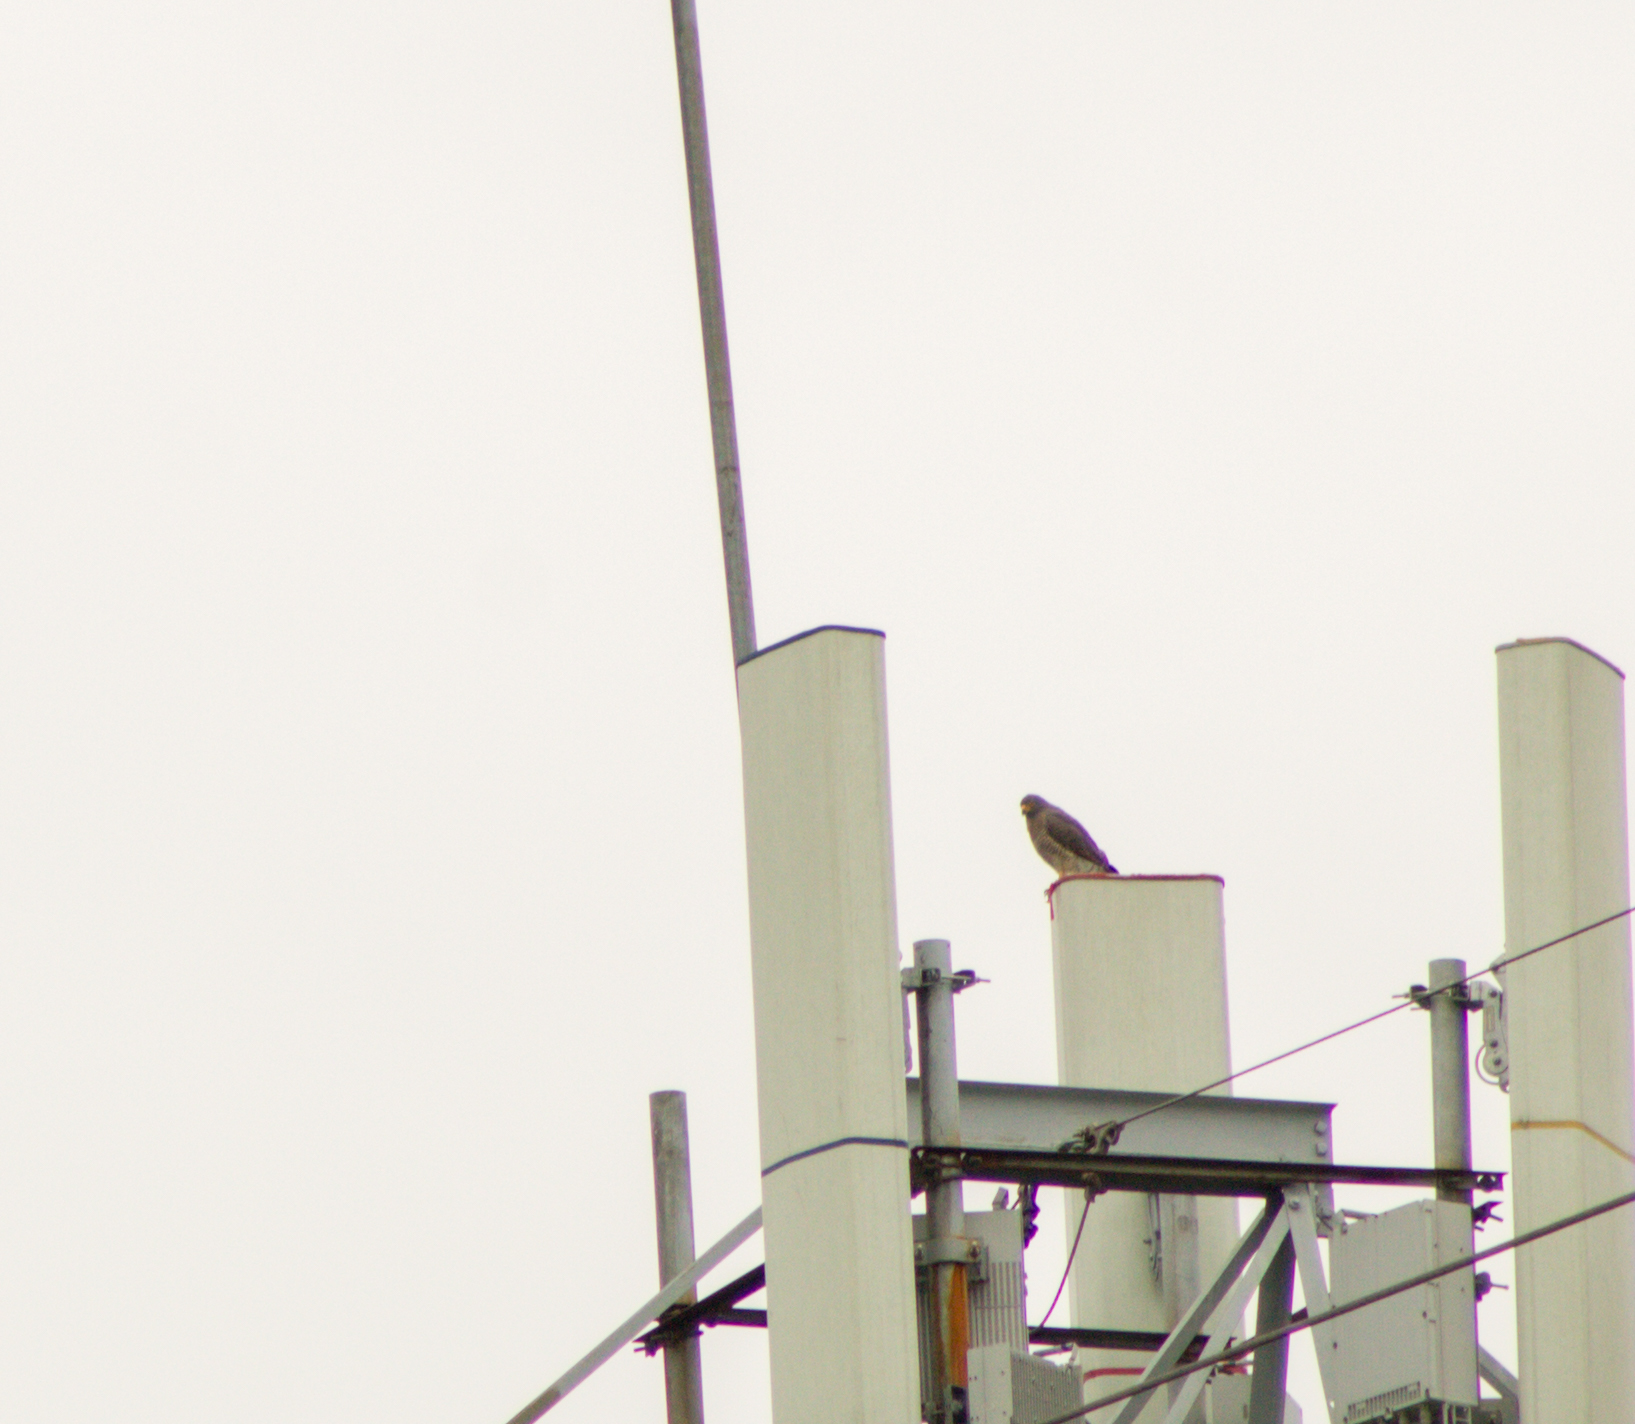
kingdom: Animalia
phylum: Chordata
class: Aves
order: Accipitriformes
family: Accipitridae
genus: Rupornis
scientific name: Rupornis magnirostris
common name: Roadside hawk
